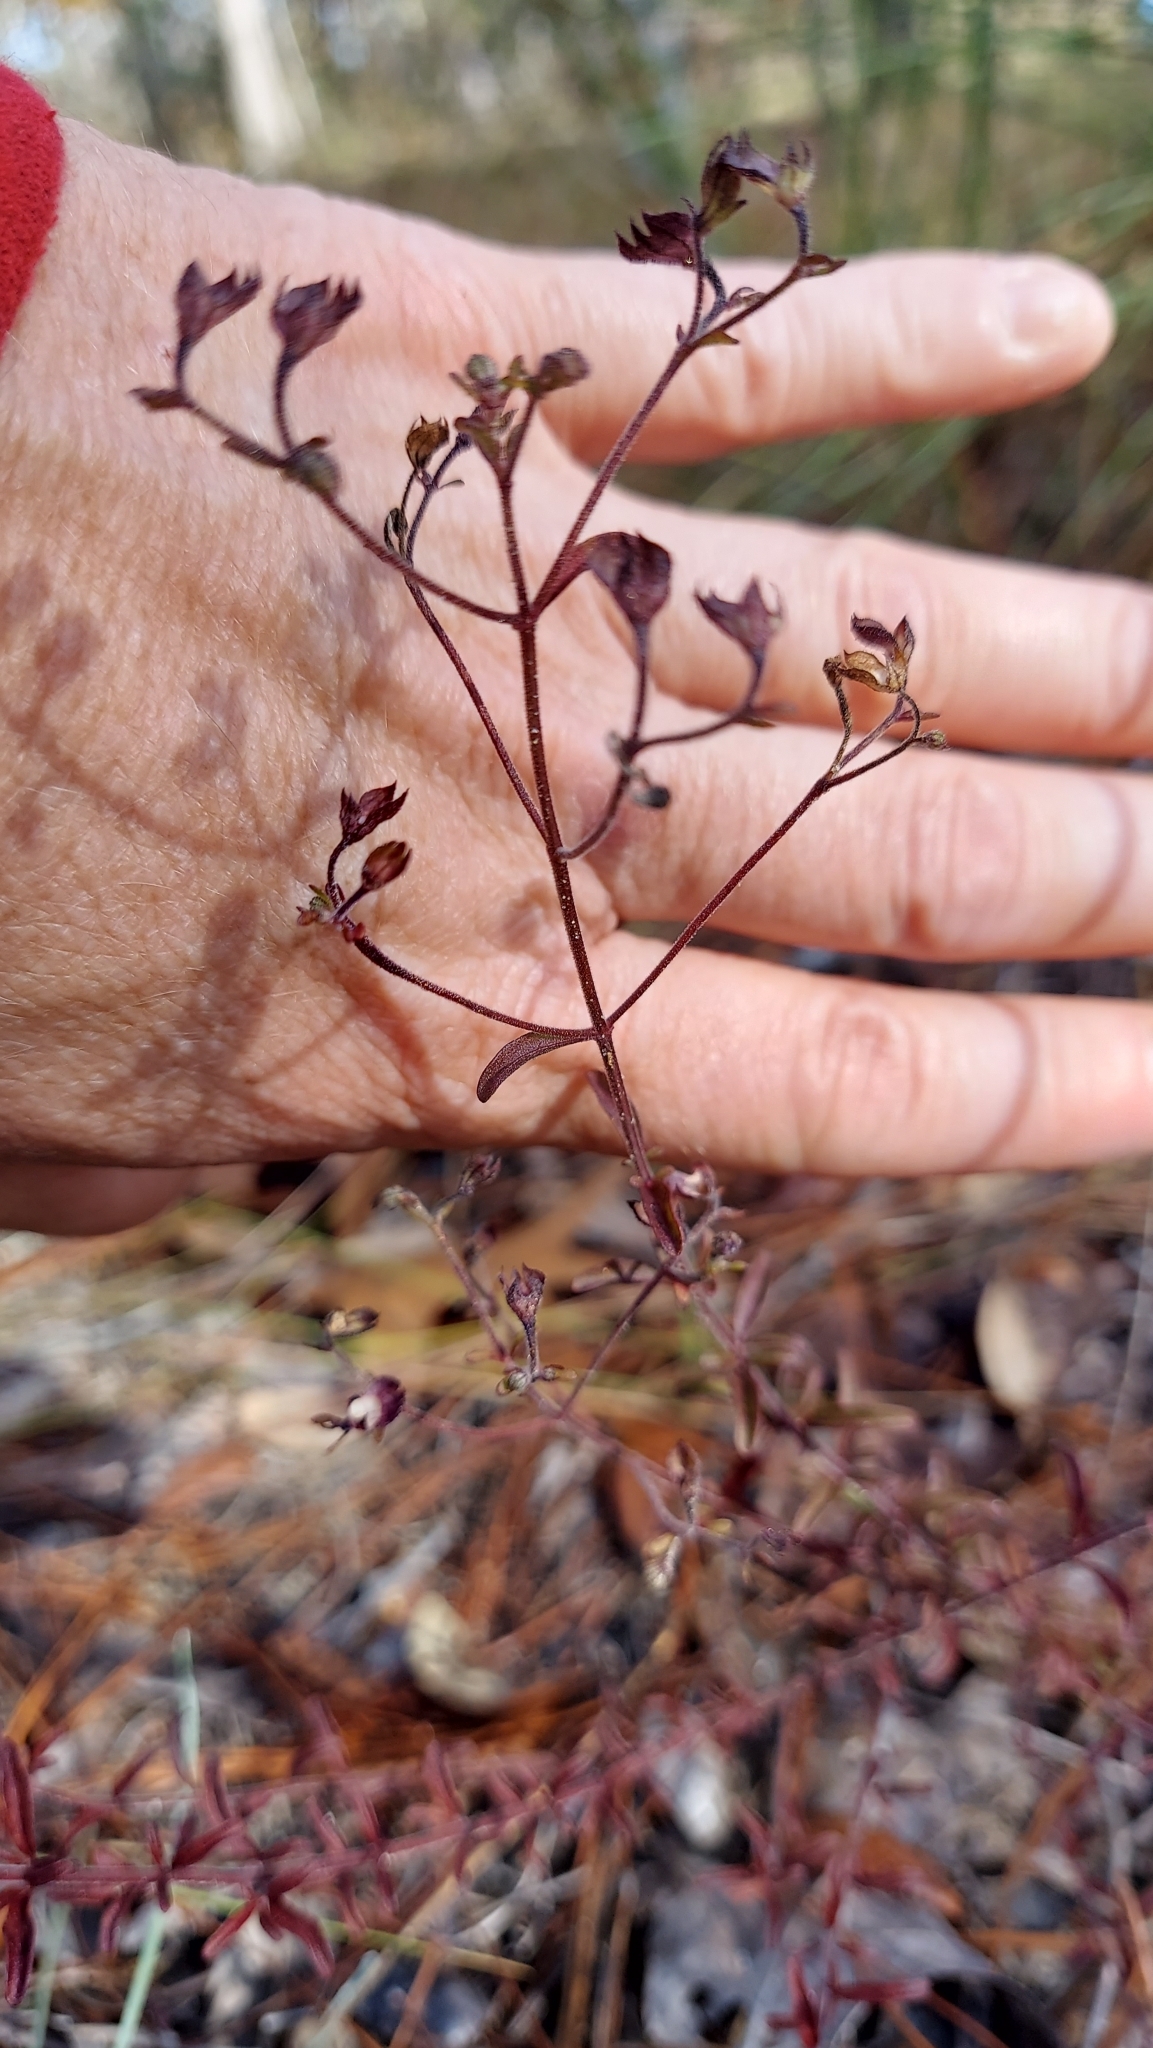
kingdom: Plantae
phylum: Tracheophyta
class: Magnoliopsida
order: Lamiales
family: Lamiaceae
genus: Trichostema
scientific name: Trichostema microphyllum
